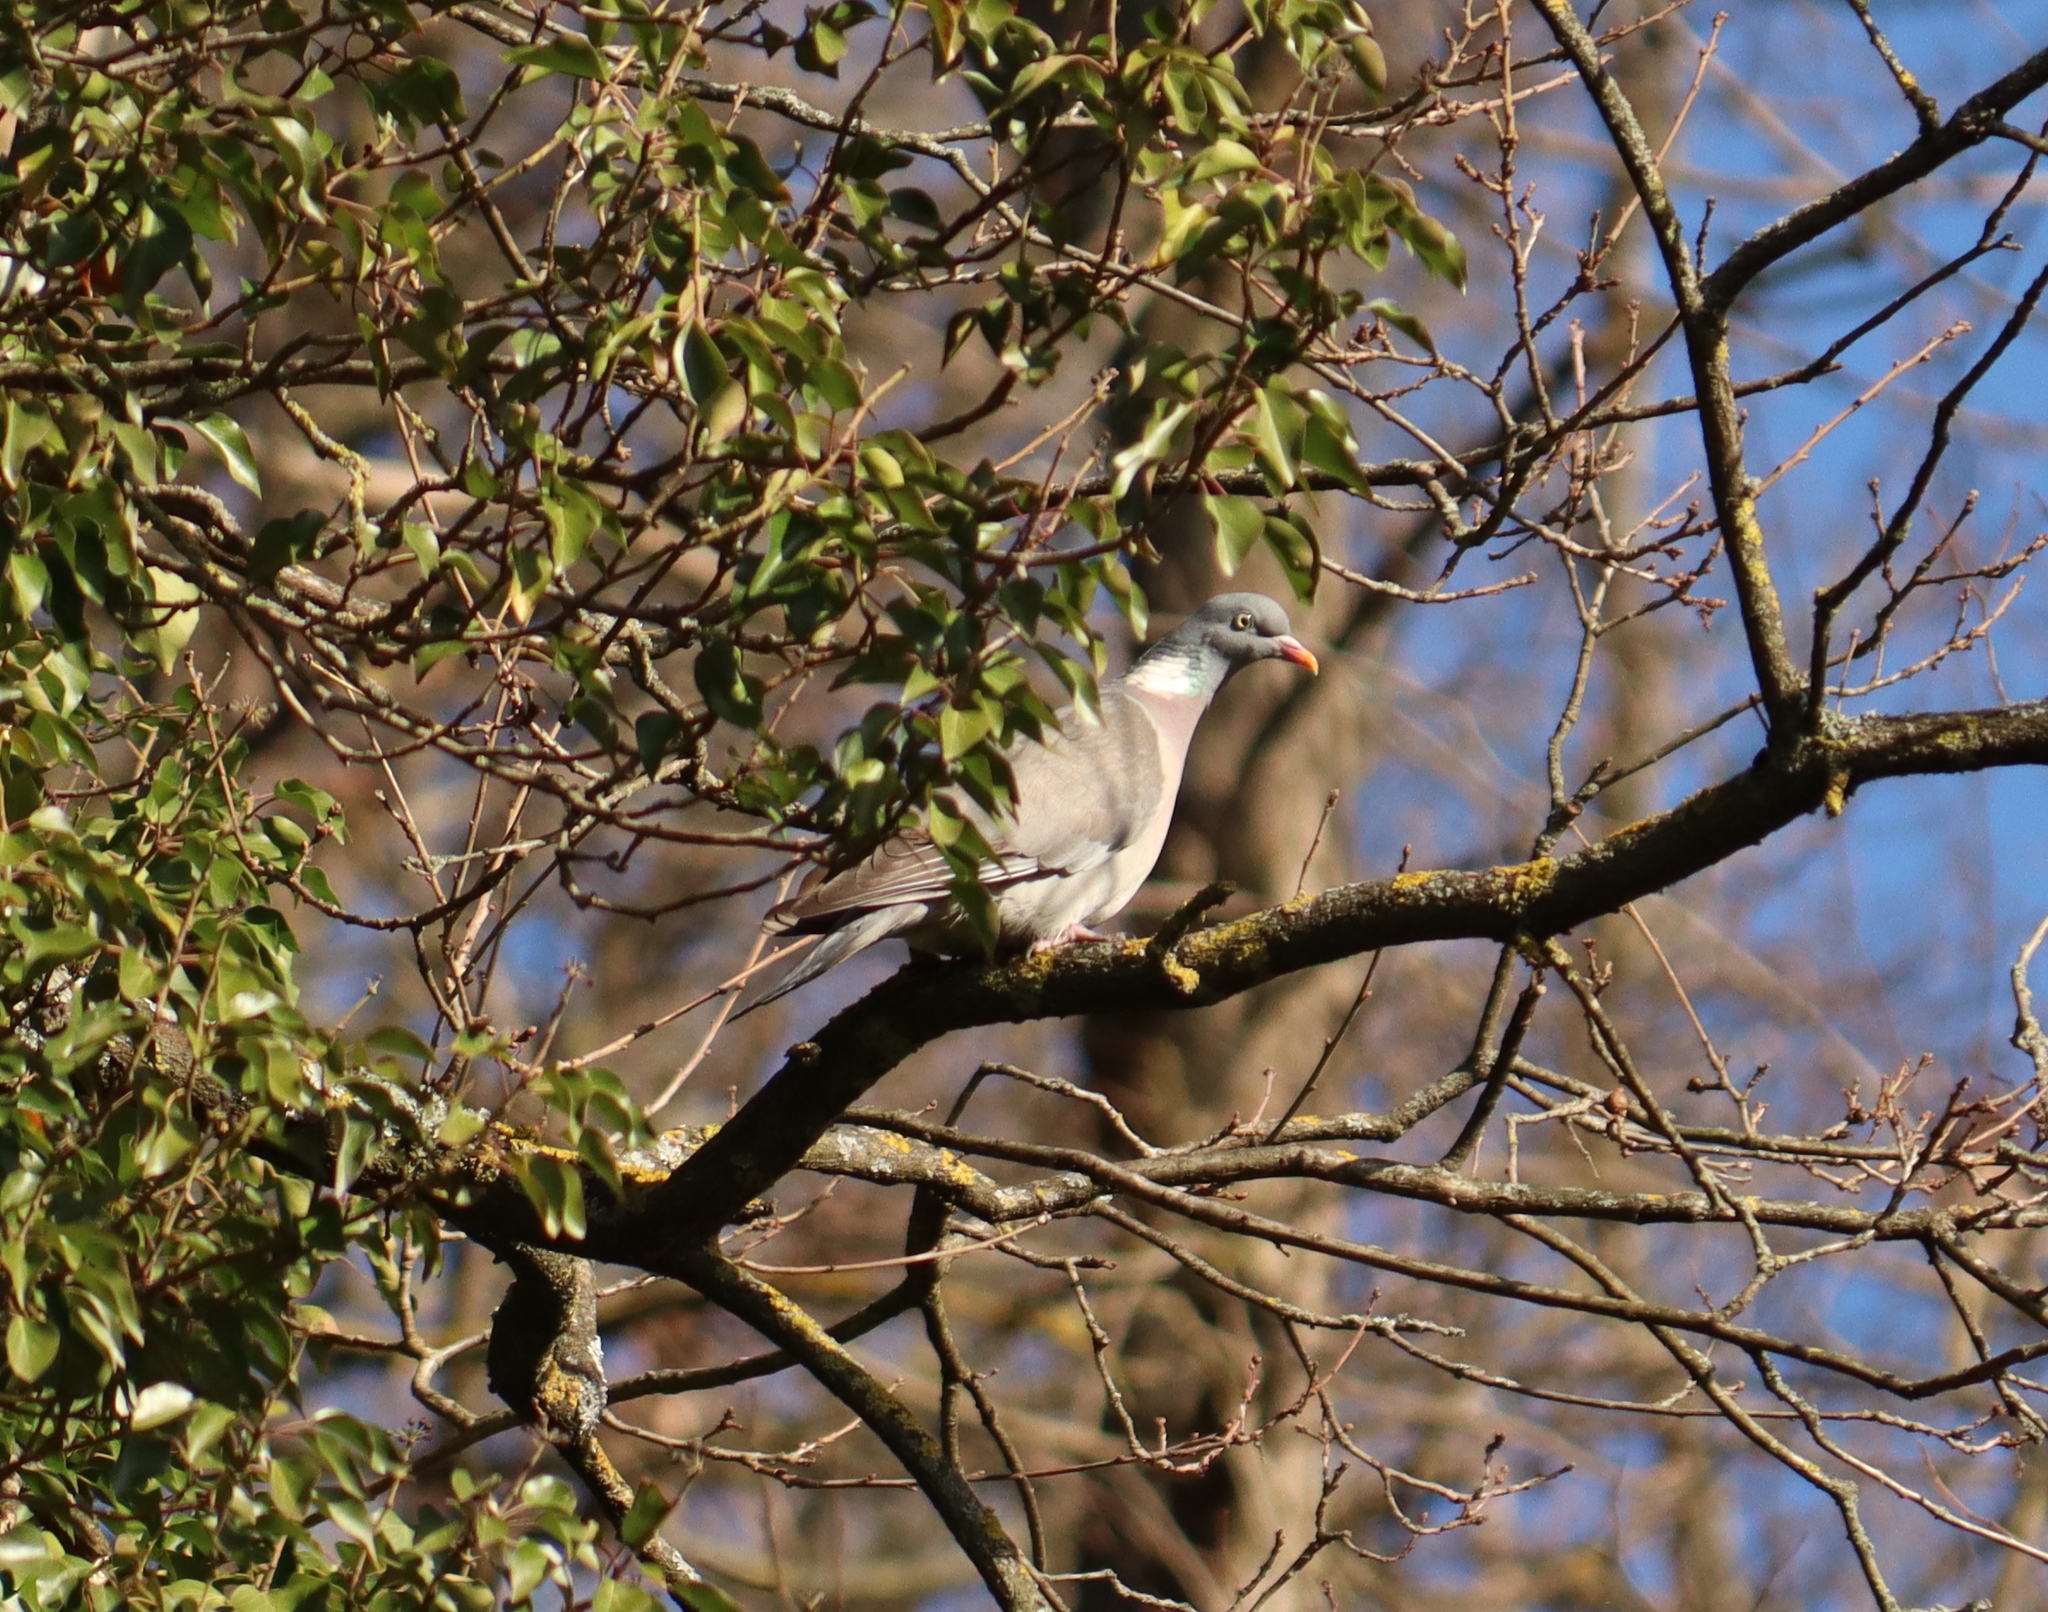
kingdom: Animalia
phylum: Chordata
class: Aves
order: Columbiformes
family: Columbidae
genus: Columba
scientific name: Columba palumbus
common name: Common wood pigeon
